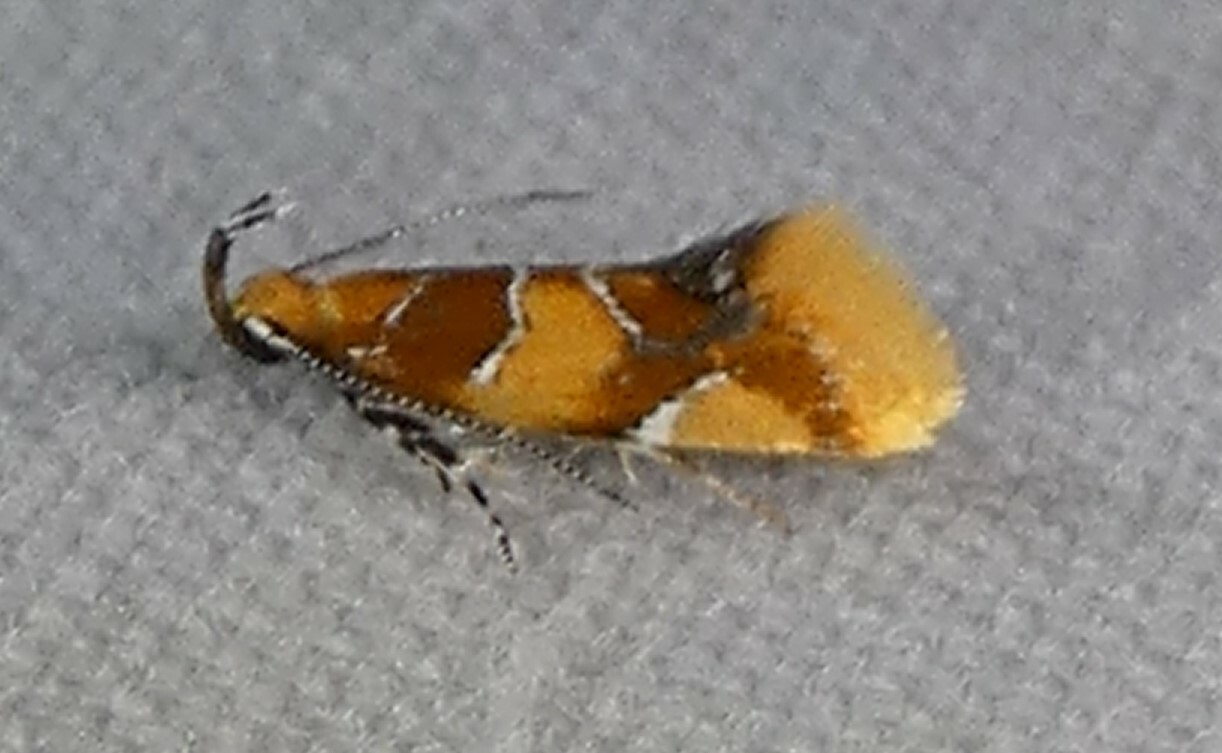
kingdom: Animalia
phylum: Arthropoda
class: Insecta
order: Lepidoptera
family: Oecophoridae
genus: Callima
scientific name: Callima argenticinctella
